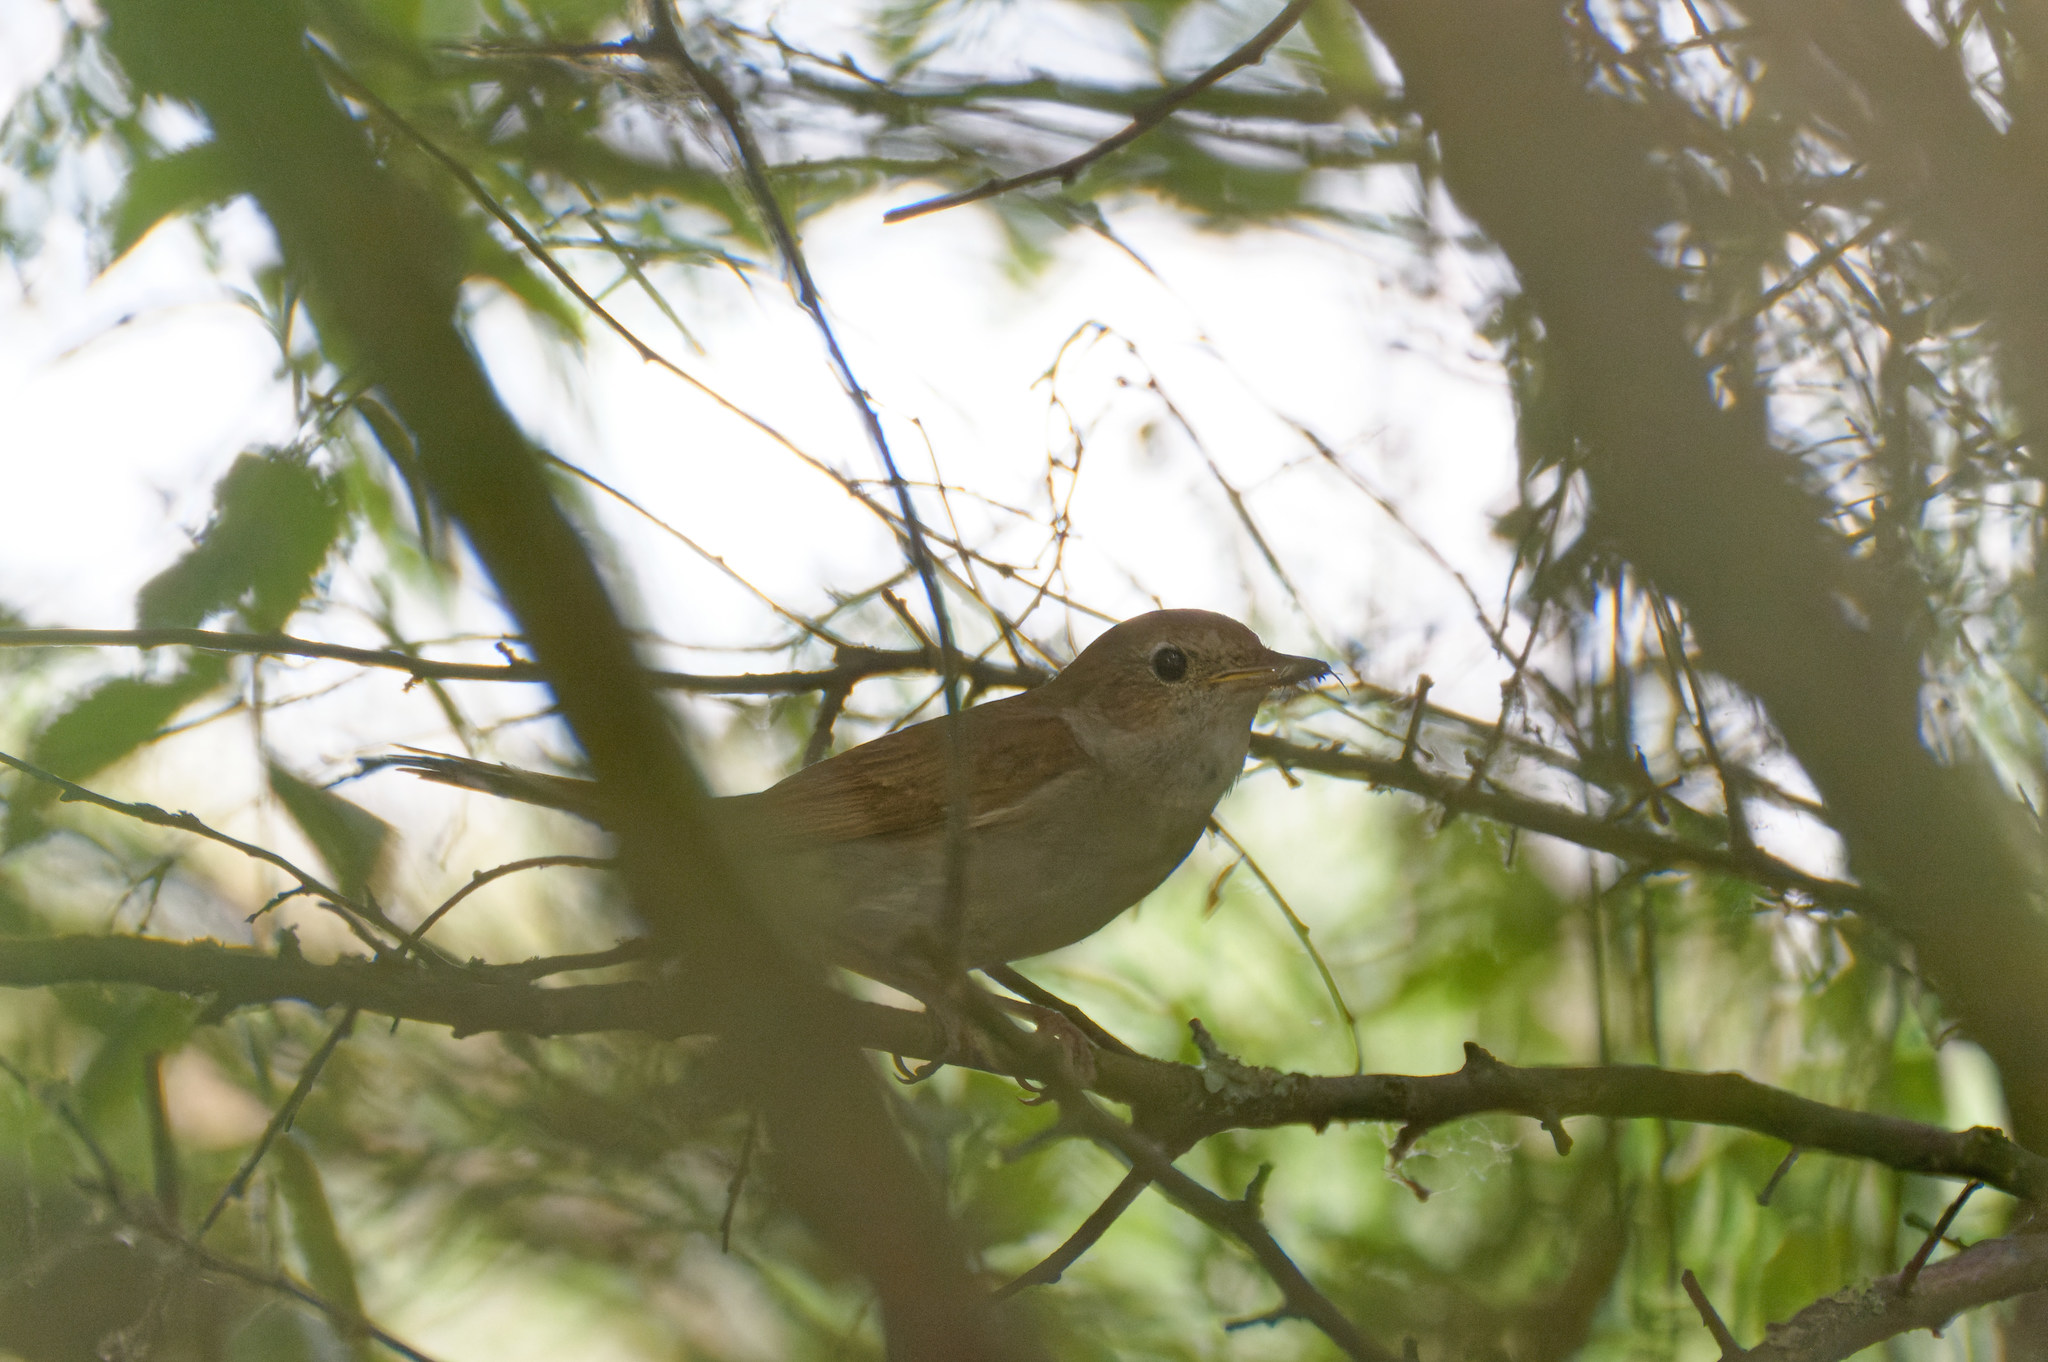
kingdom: Animalia
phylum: Chordata
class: Aves
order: Passeriformes
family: Muscicapidae
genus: Luscinia
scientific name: Luscinia megarhynchos
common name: Common nightingale
